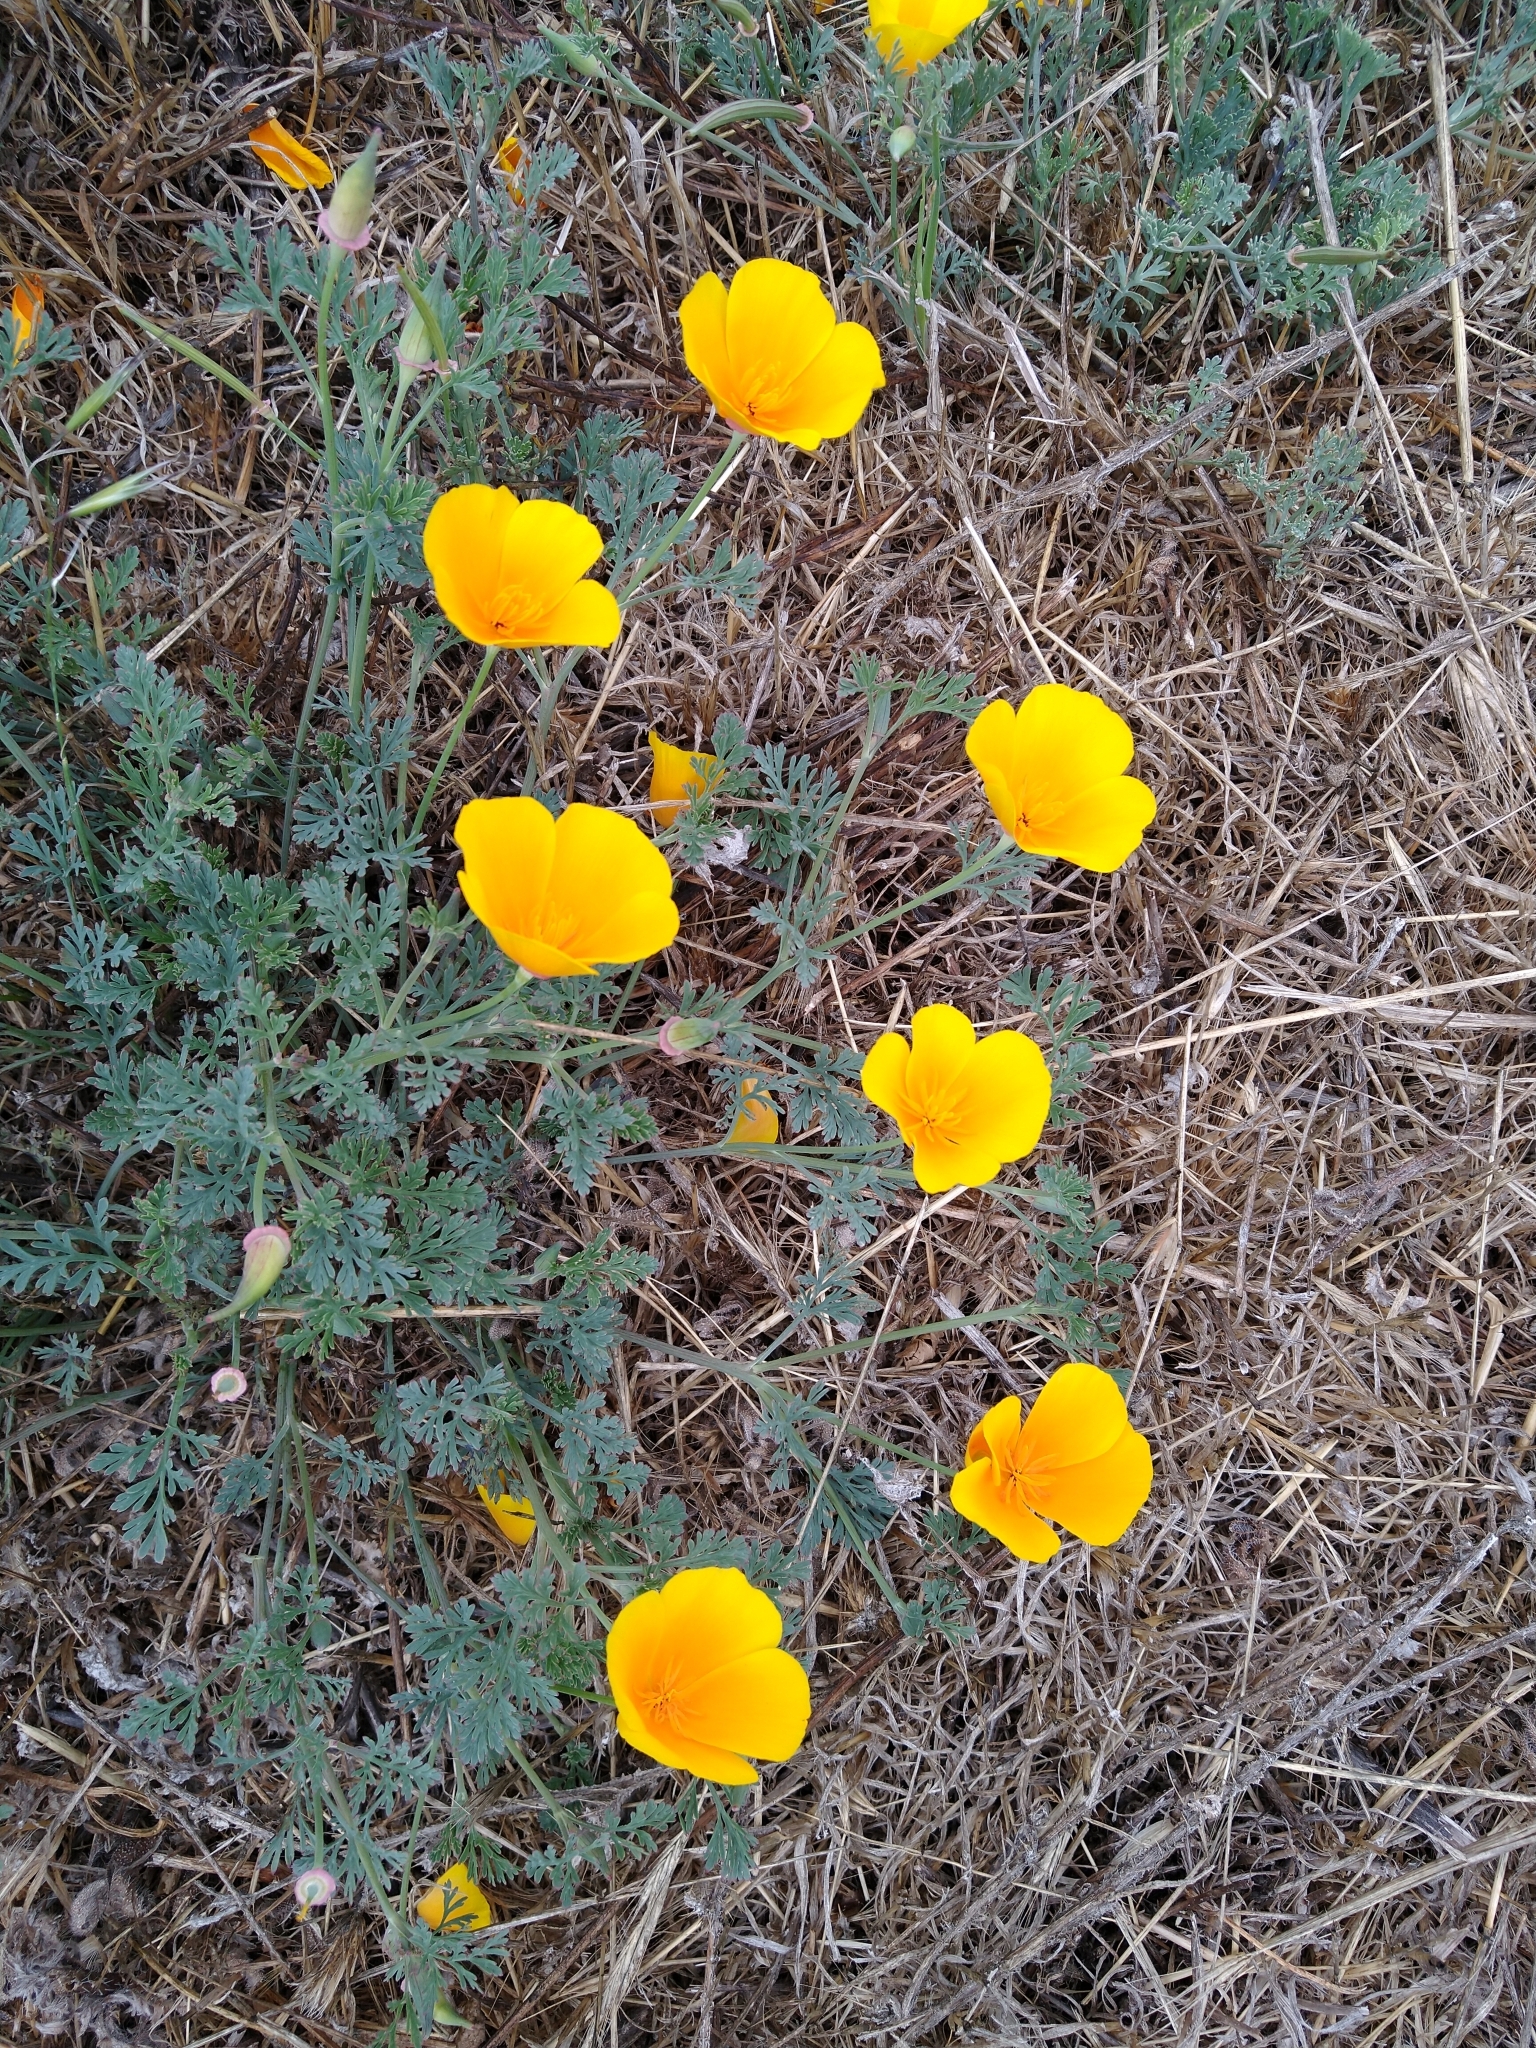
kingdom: Plantae
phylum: Tracheophyta
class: Magnoliopsida
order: Ranunculales
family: Papaveraceae
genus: Eschscholzia
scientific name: Eschscholzia californica
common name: California poppy
